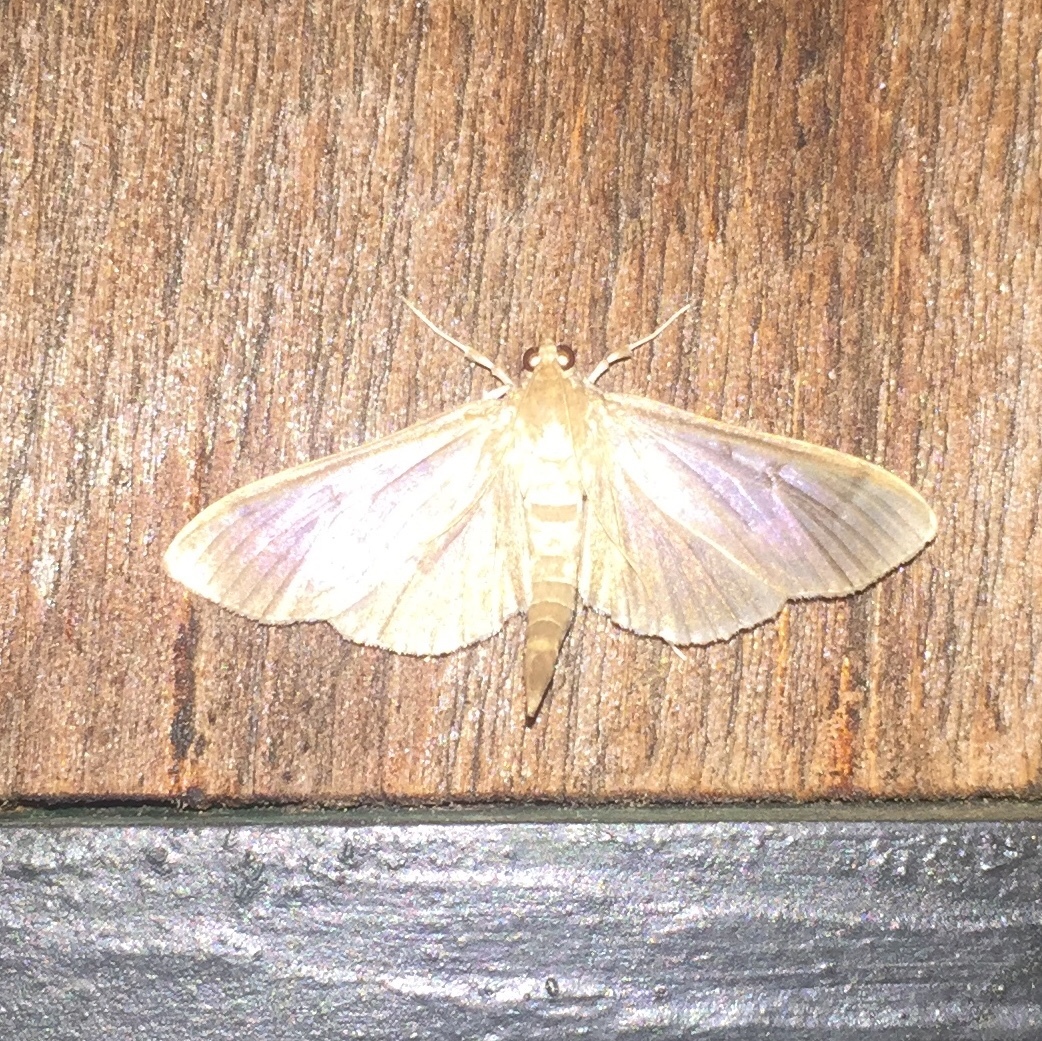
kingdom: Animalia
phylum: Arthropoda
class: Insecta
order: Lepidoptera
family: Crambidae
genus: Herpetogramma
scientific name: Herpetogramma pertextalis
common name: Bold-feathered grass moth
